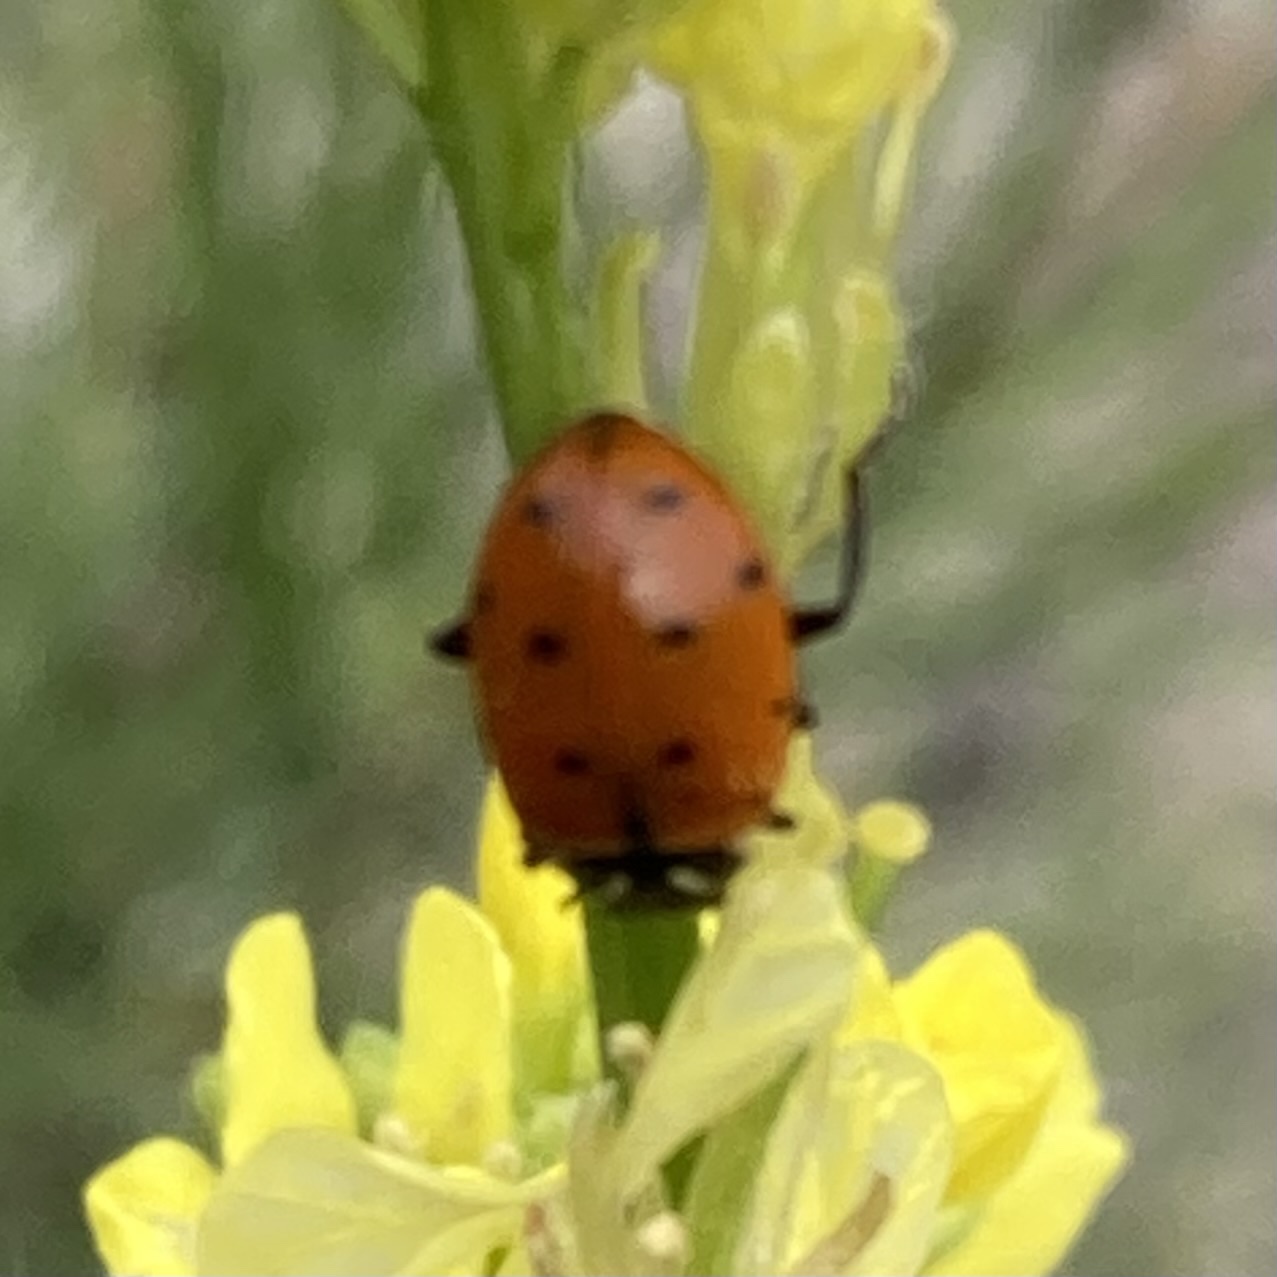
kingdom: Animalia
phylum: Arthropoda
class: Insecta
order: Coleoptera
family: Coccinellidae
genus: Hippodamia
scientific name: Hippodamia convergens
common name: Convergent lady beetle
